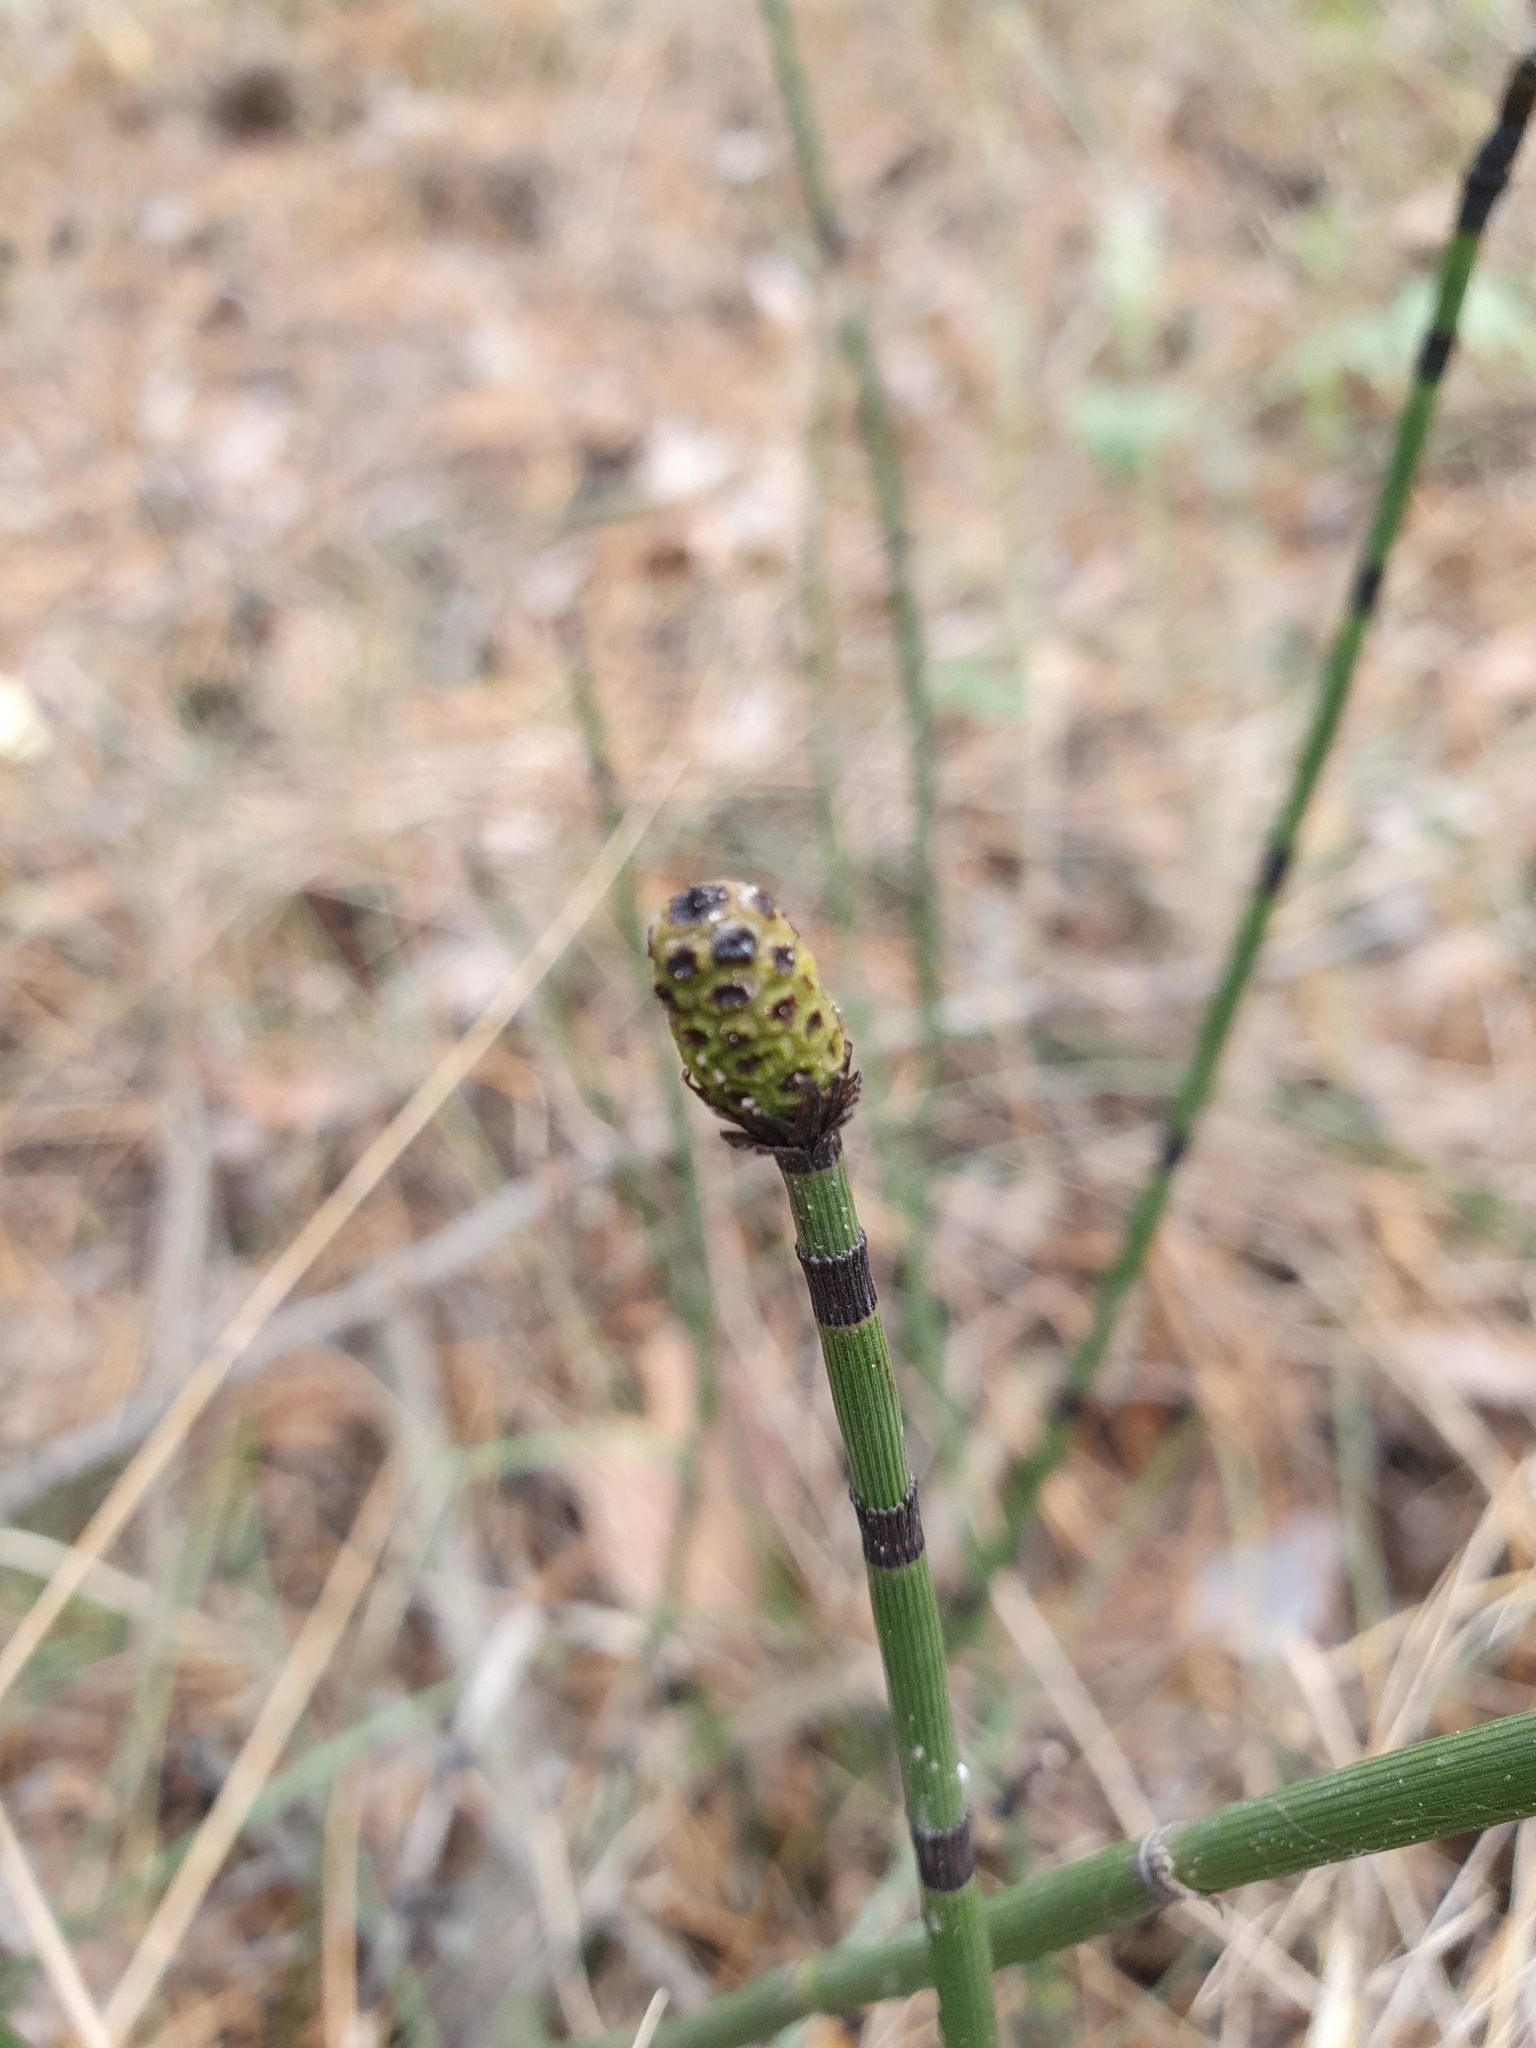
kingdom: Plantae
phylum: Tracheophyta
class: Polypodiopsida
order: Equisetales
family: Equisetaceae
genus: Equisetum
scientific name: Equisetum hyemale
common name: Rough horsetail
